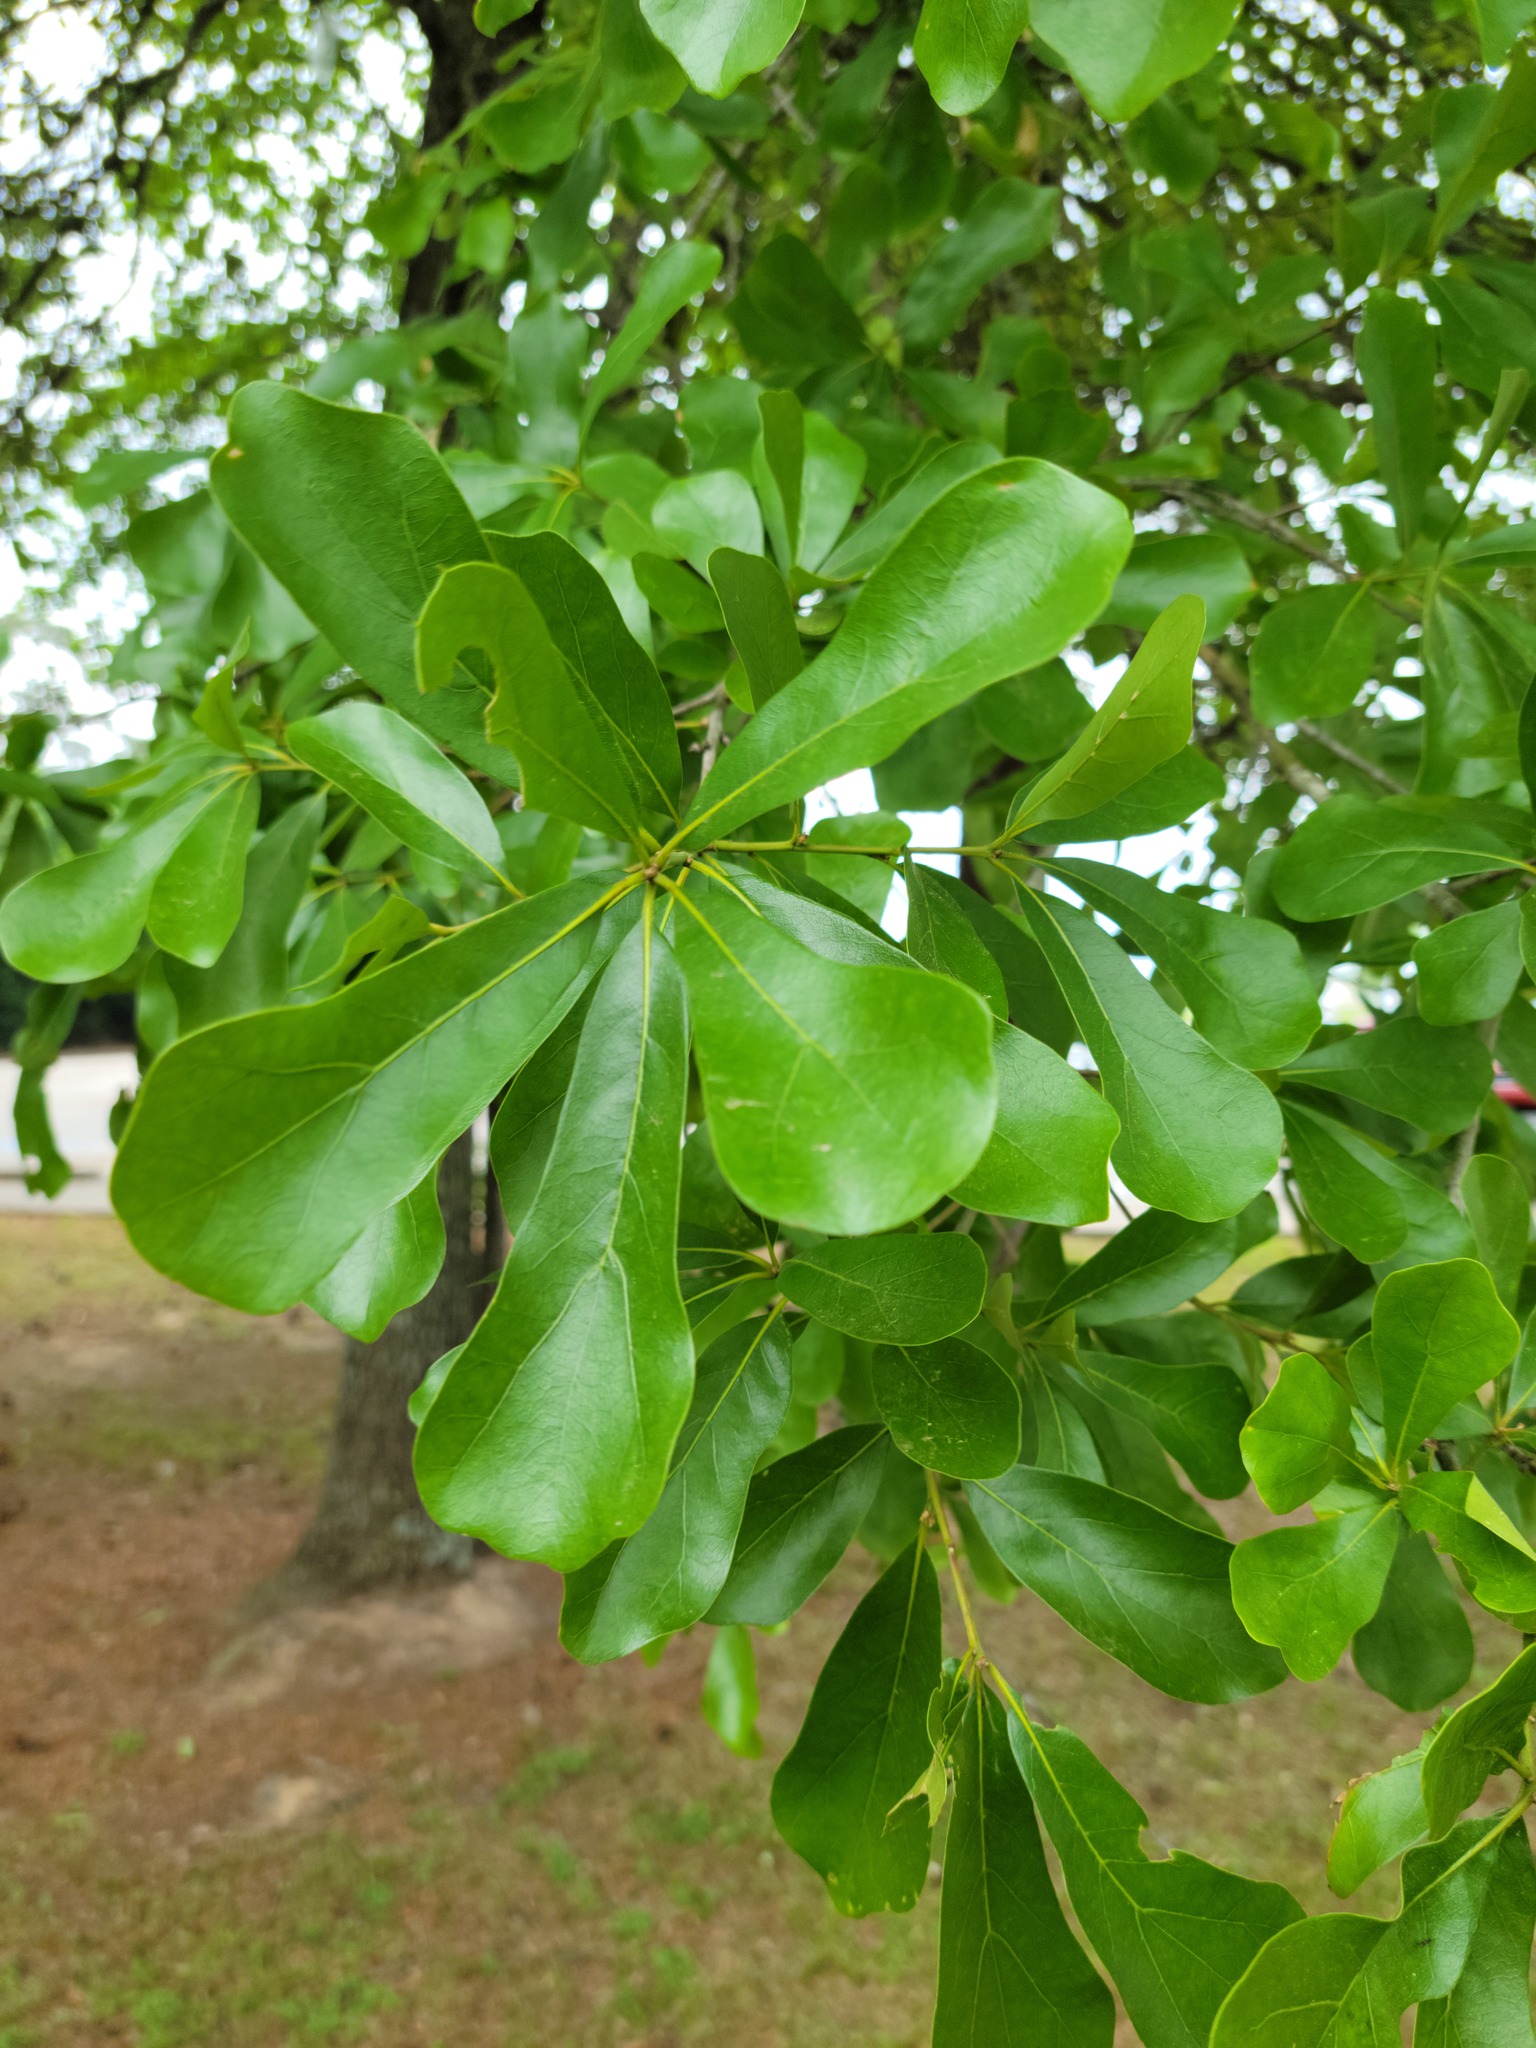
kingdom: Plantae
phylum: Tracheophyta
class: Magnoliopsida
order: Fagales
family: Fagaceae
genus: Quercus
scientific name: Quercus nigra
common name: Water oak
